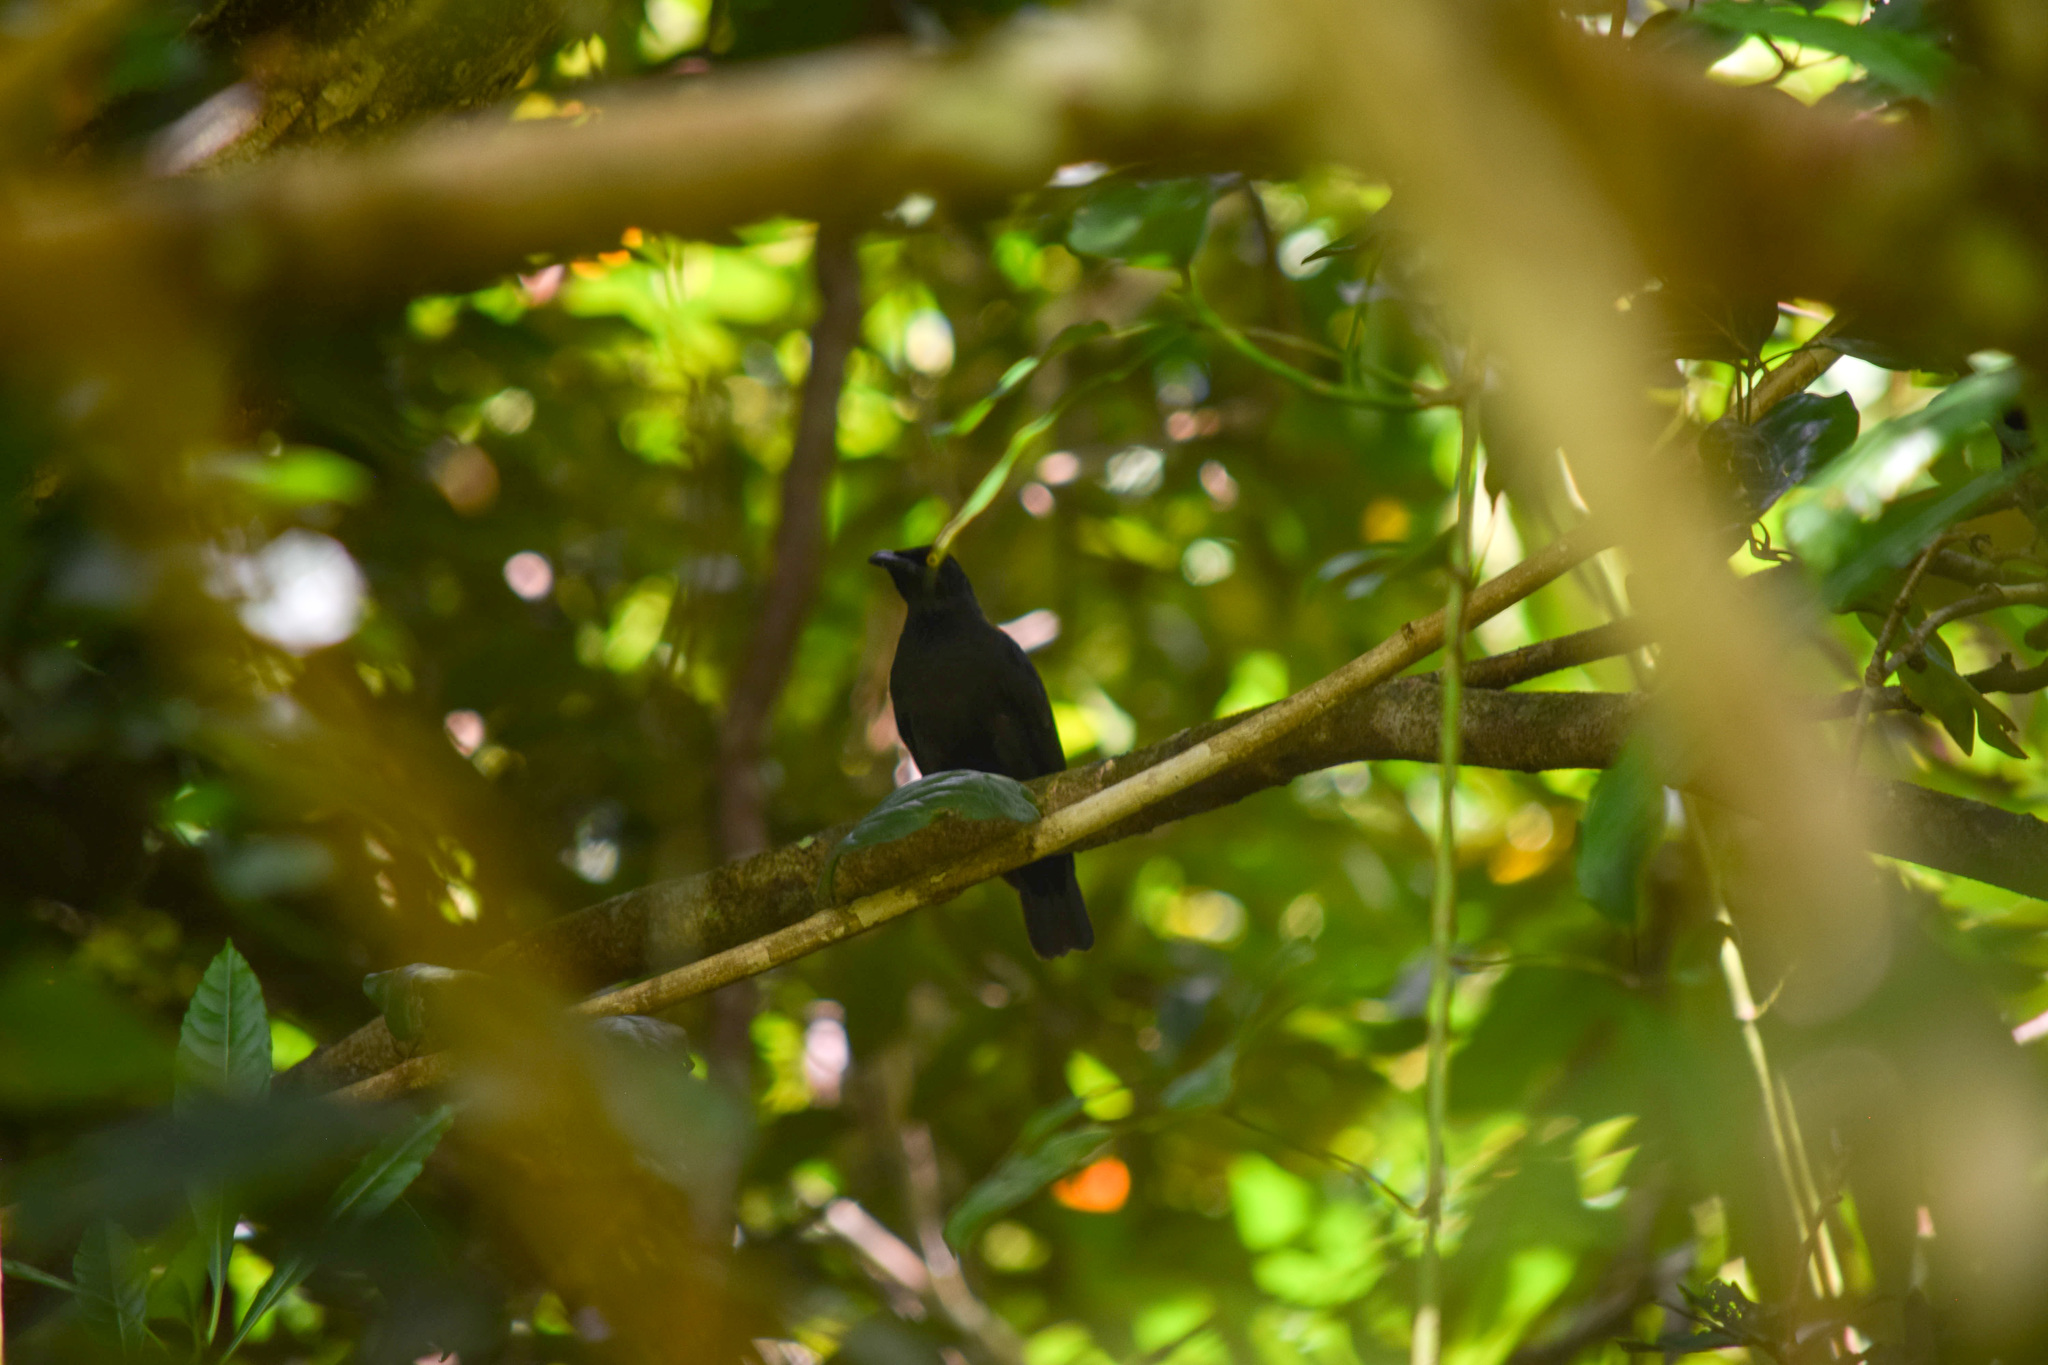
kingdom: Animalia
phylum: Chordata
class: Aves
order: Passeriformes
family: Sturnidae
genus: Aplonis
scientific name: Aplonis opaca
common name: Micronesian starling
